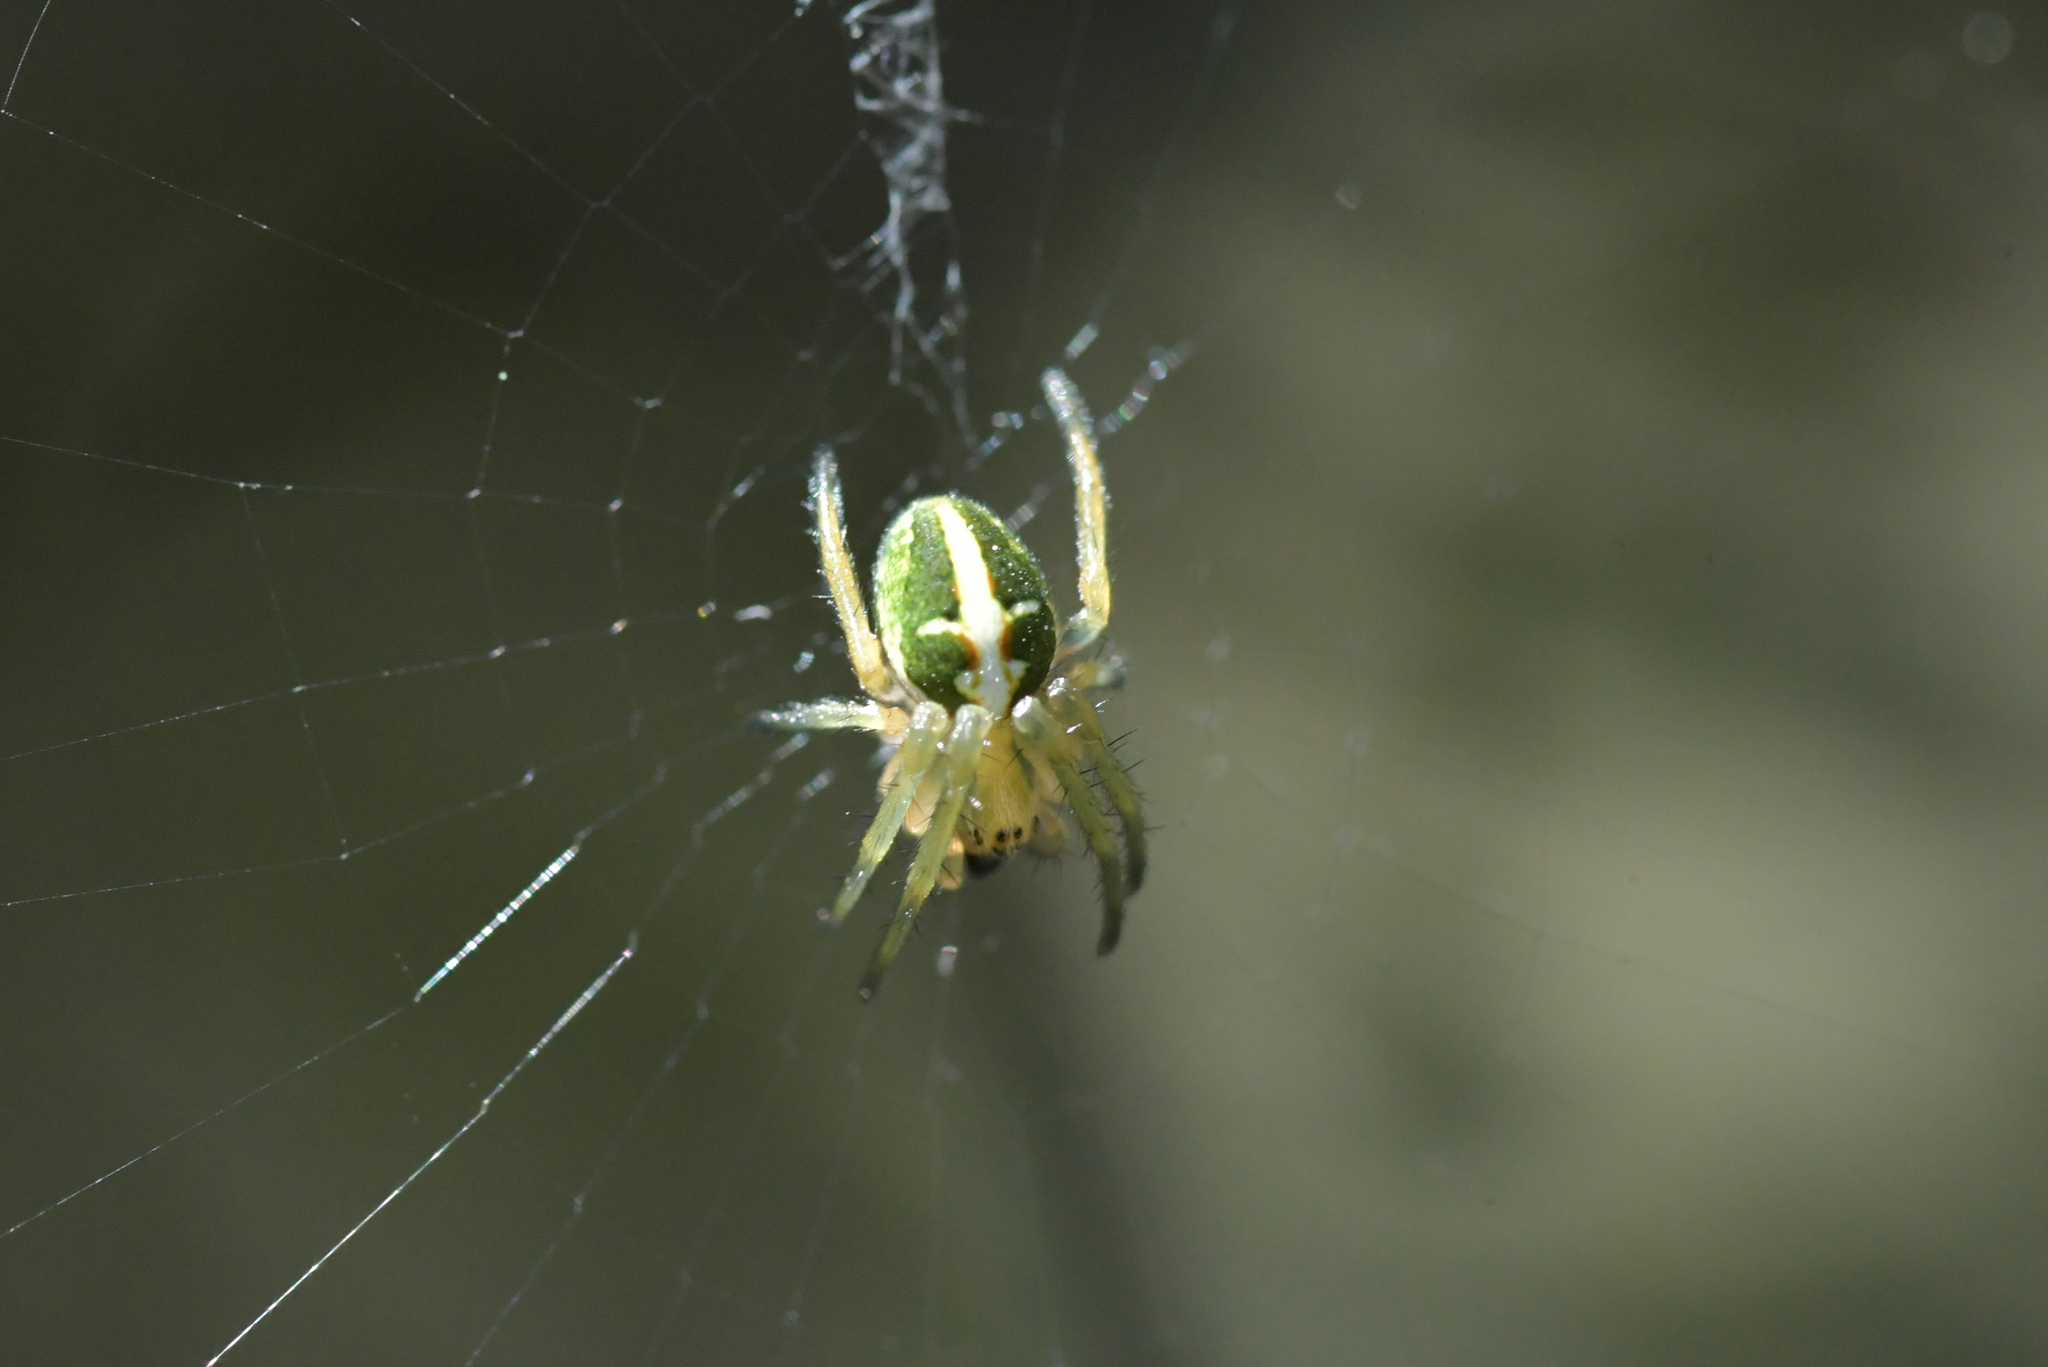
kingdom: Animalia
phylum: Arthropoda
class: Arachnida
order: Araneae
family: Araneidae
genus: Colaranea
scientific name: Colaranea verutum
